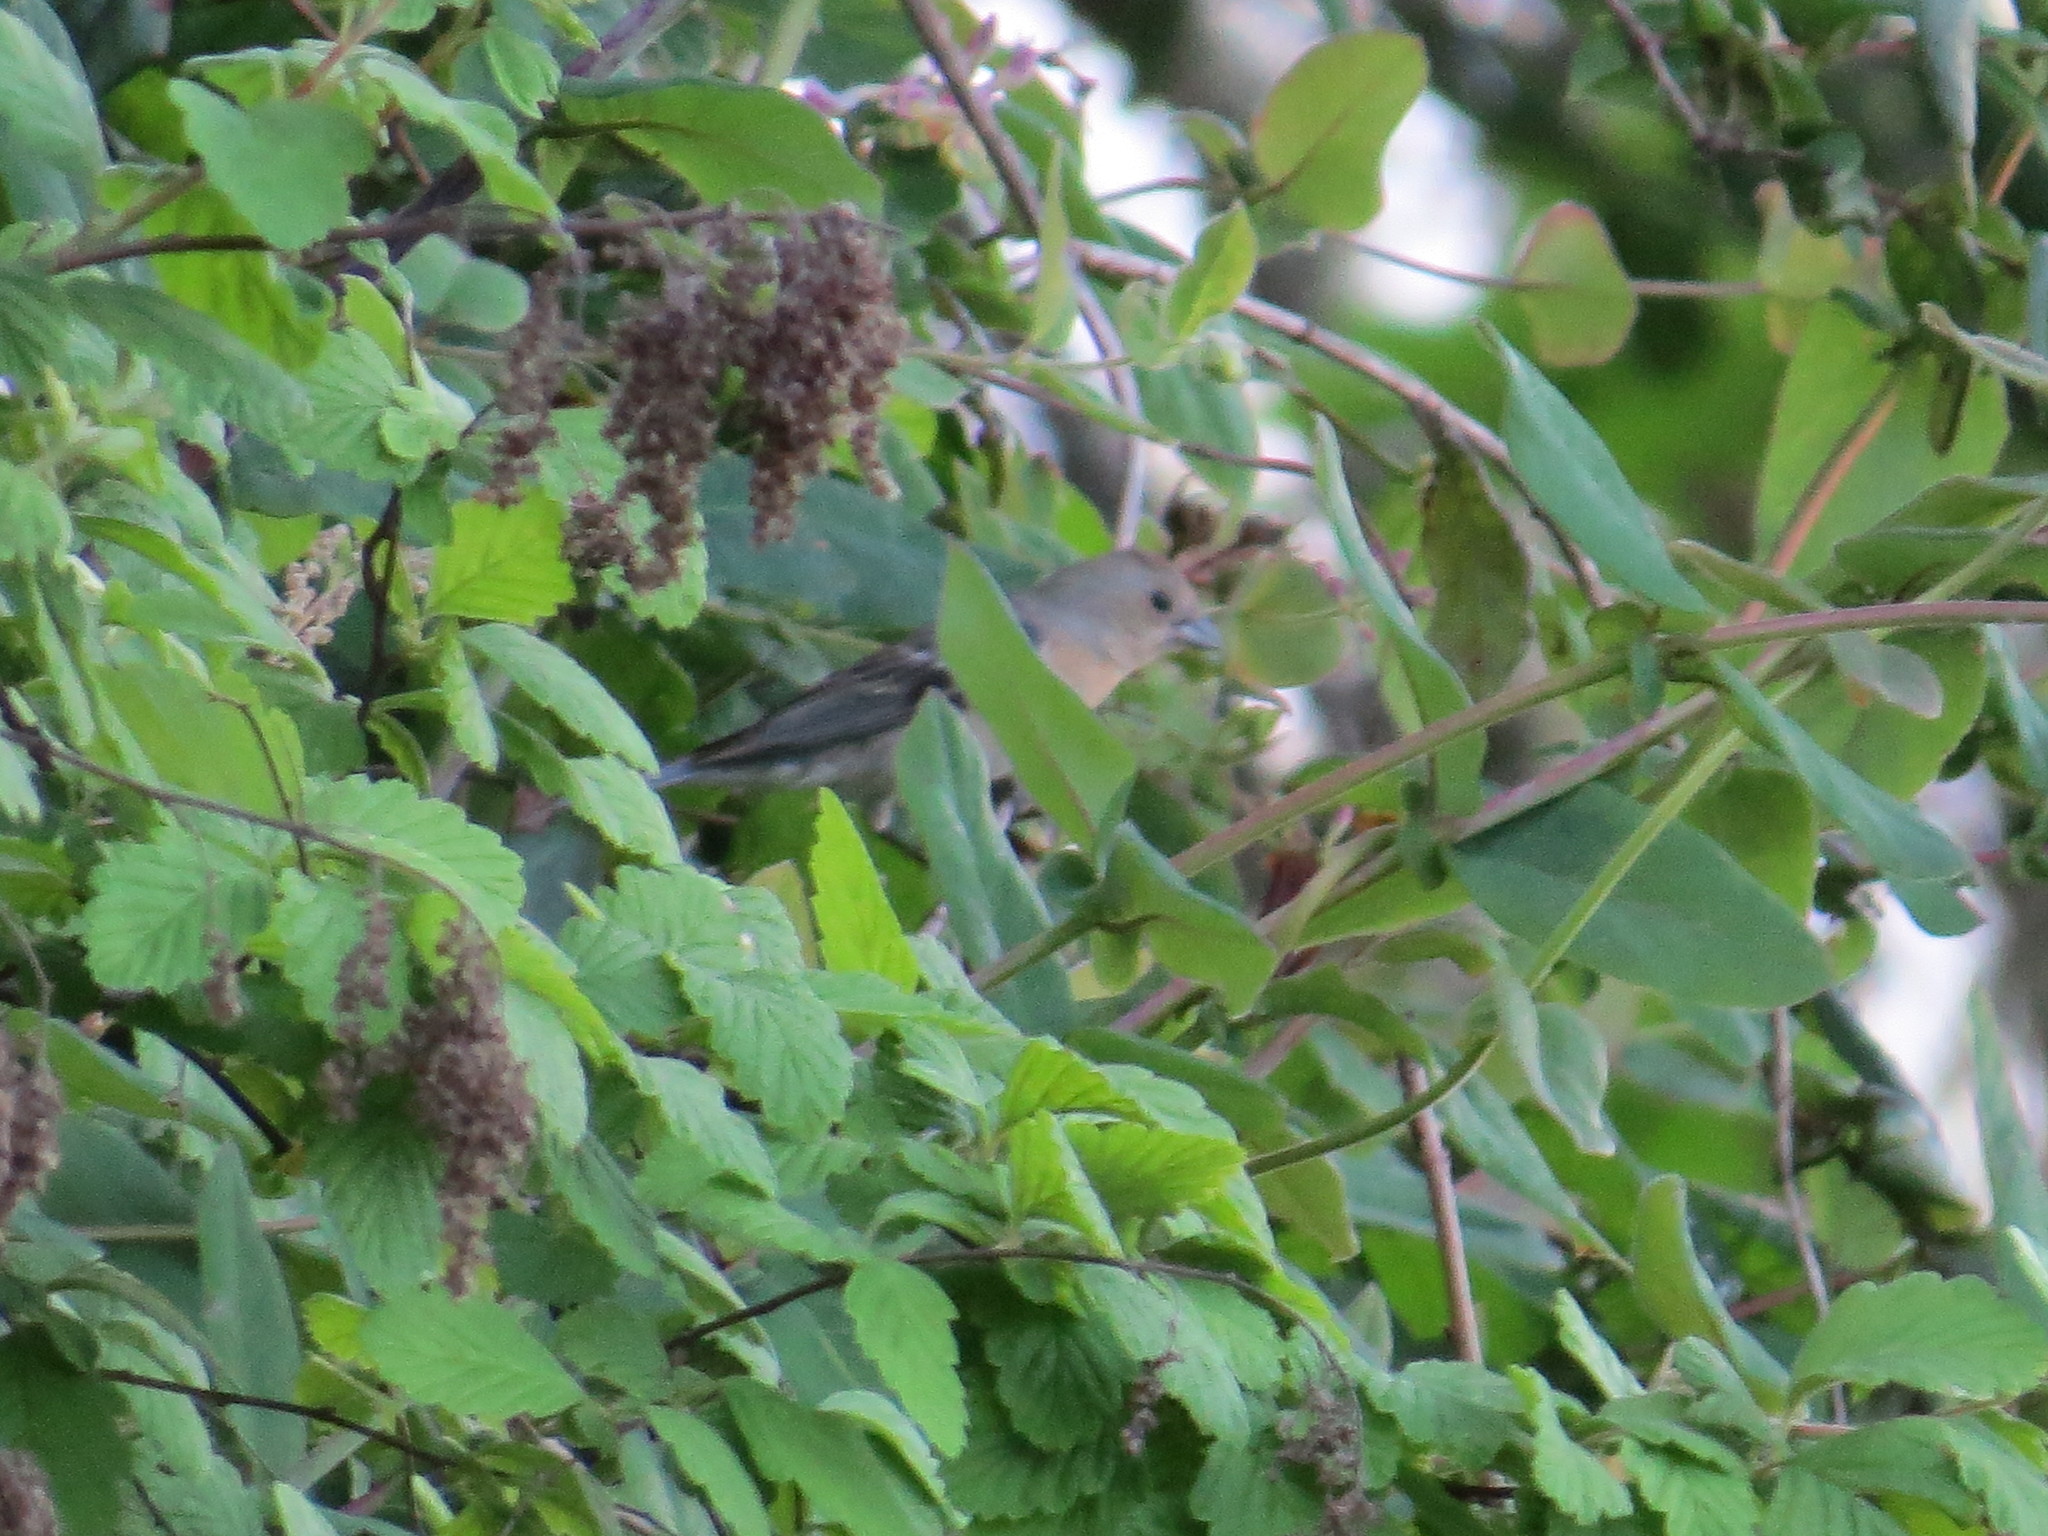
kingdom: Animalia
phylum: Chordata
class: Aves
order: Passeriformes
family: Cardinalidae
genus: Passerina
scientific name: Passerina amoena
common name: Lazuli bunting
